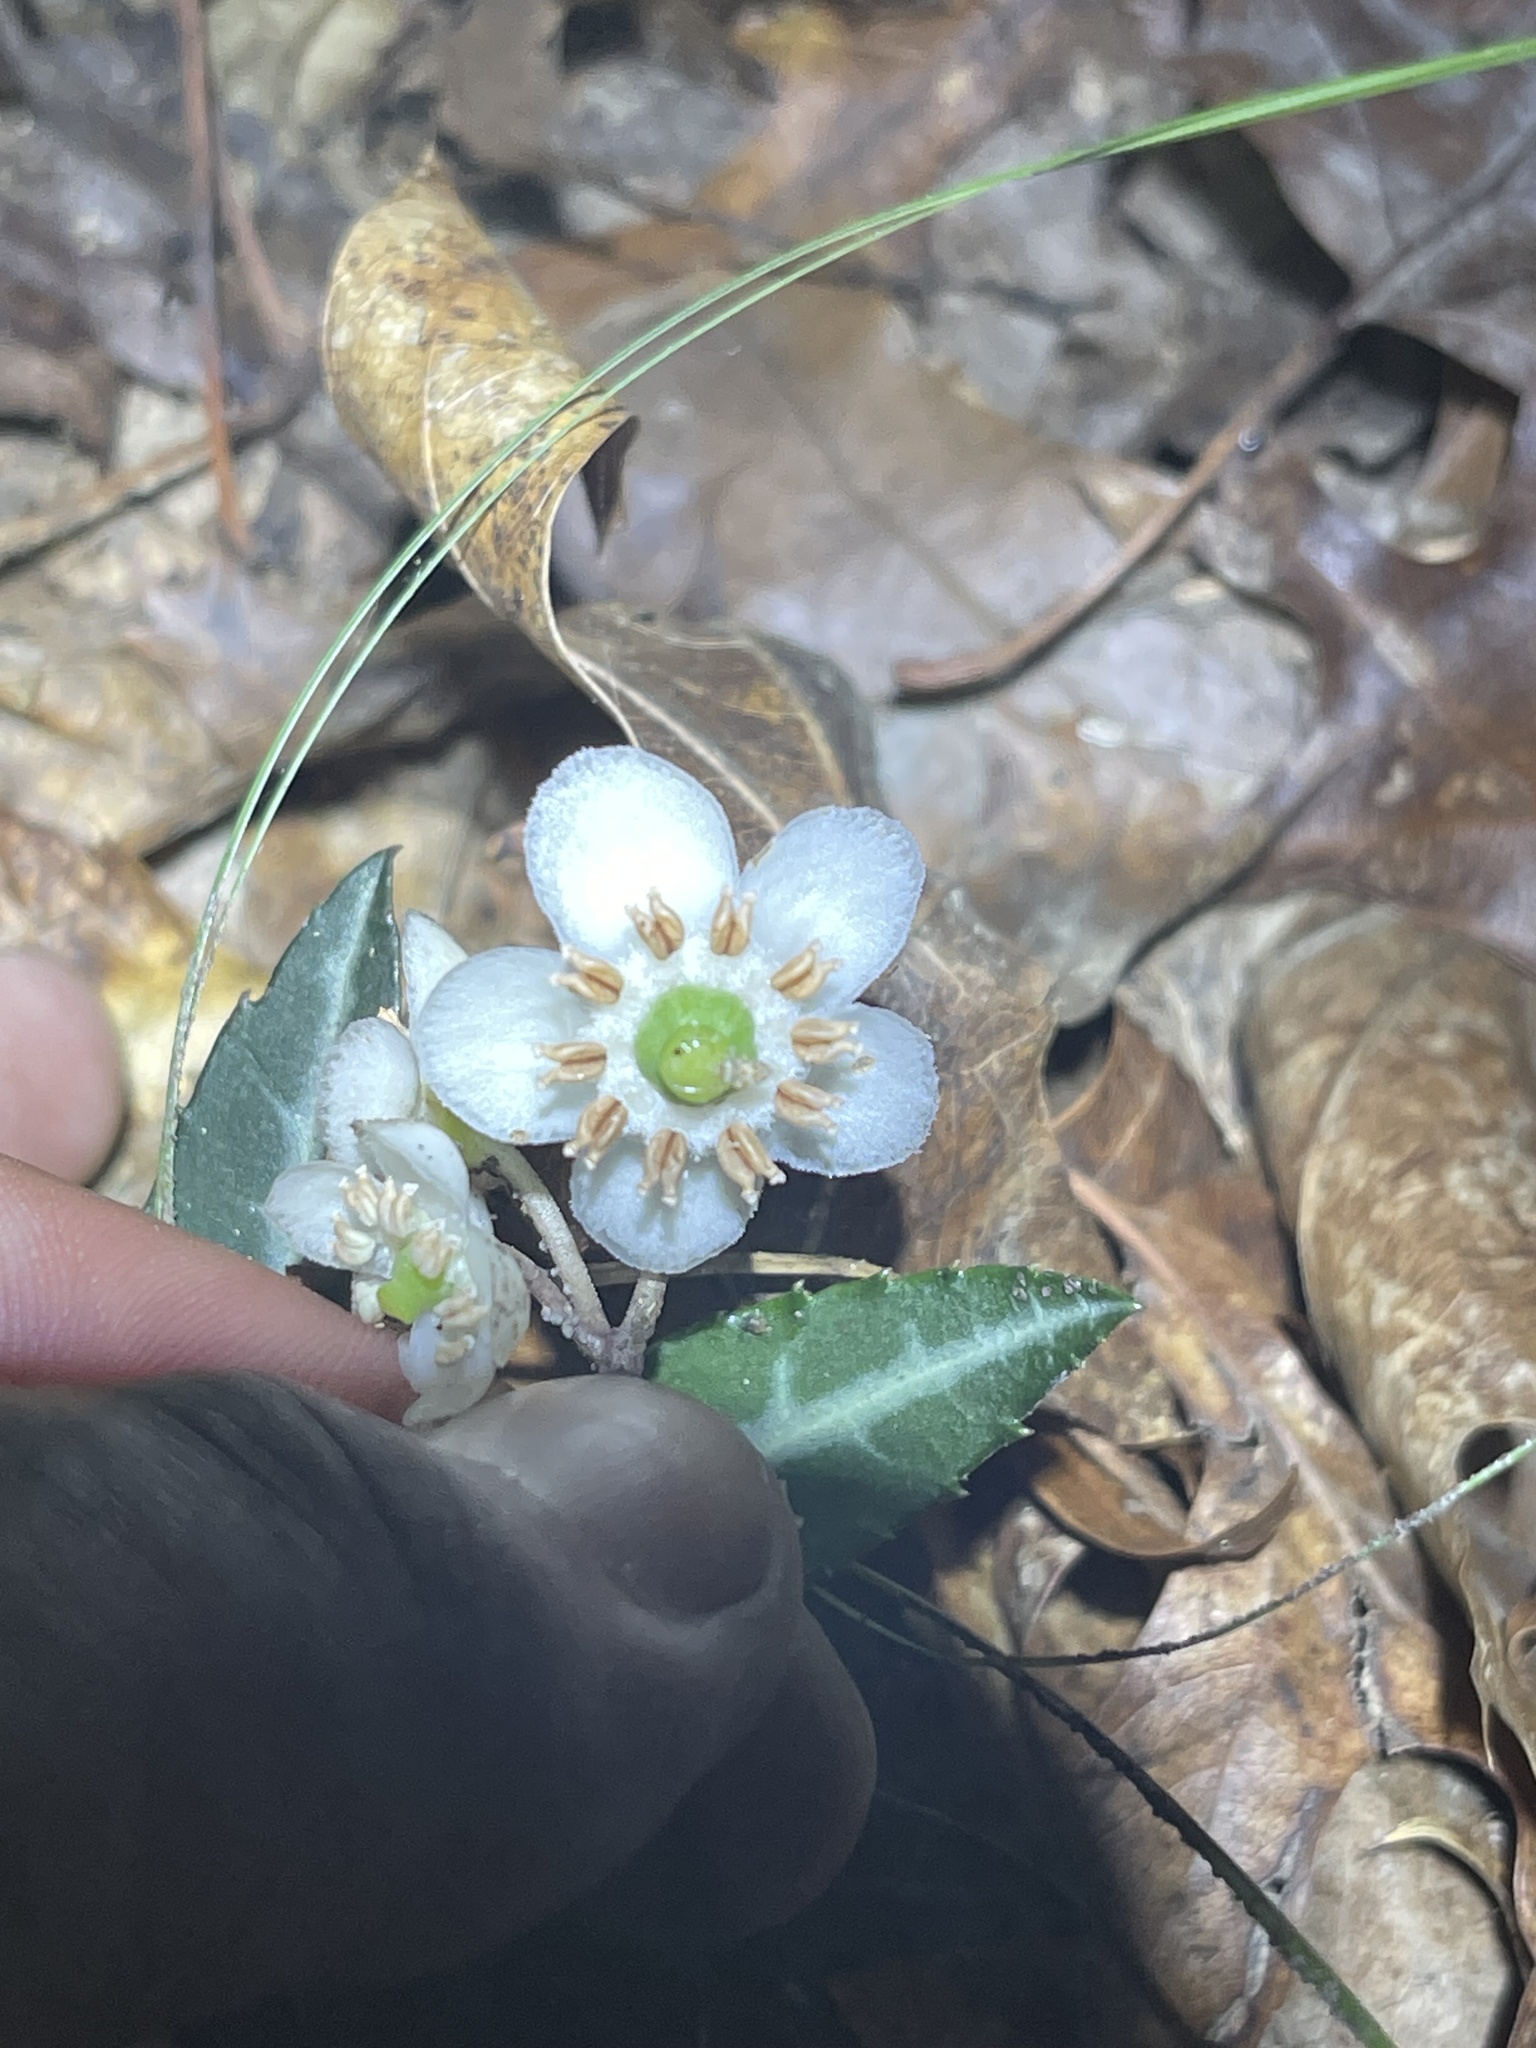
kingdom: Plantae
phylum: Tracheophyta
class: Magnoliopsida
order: Ericales
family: Ericaceae
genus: Chimaphila
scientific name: Chimaphila maculata
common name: Spotted pipsissewa
